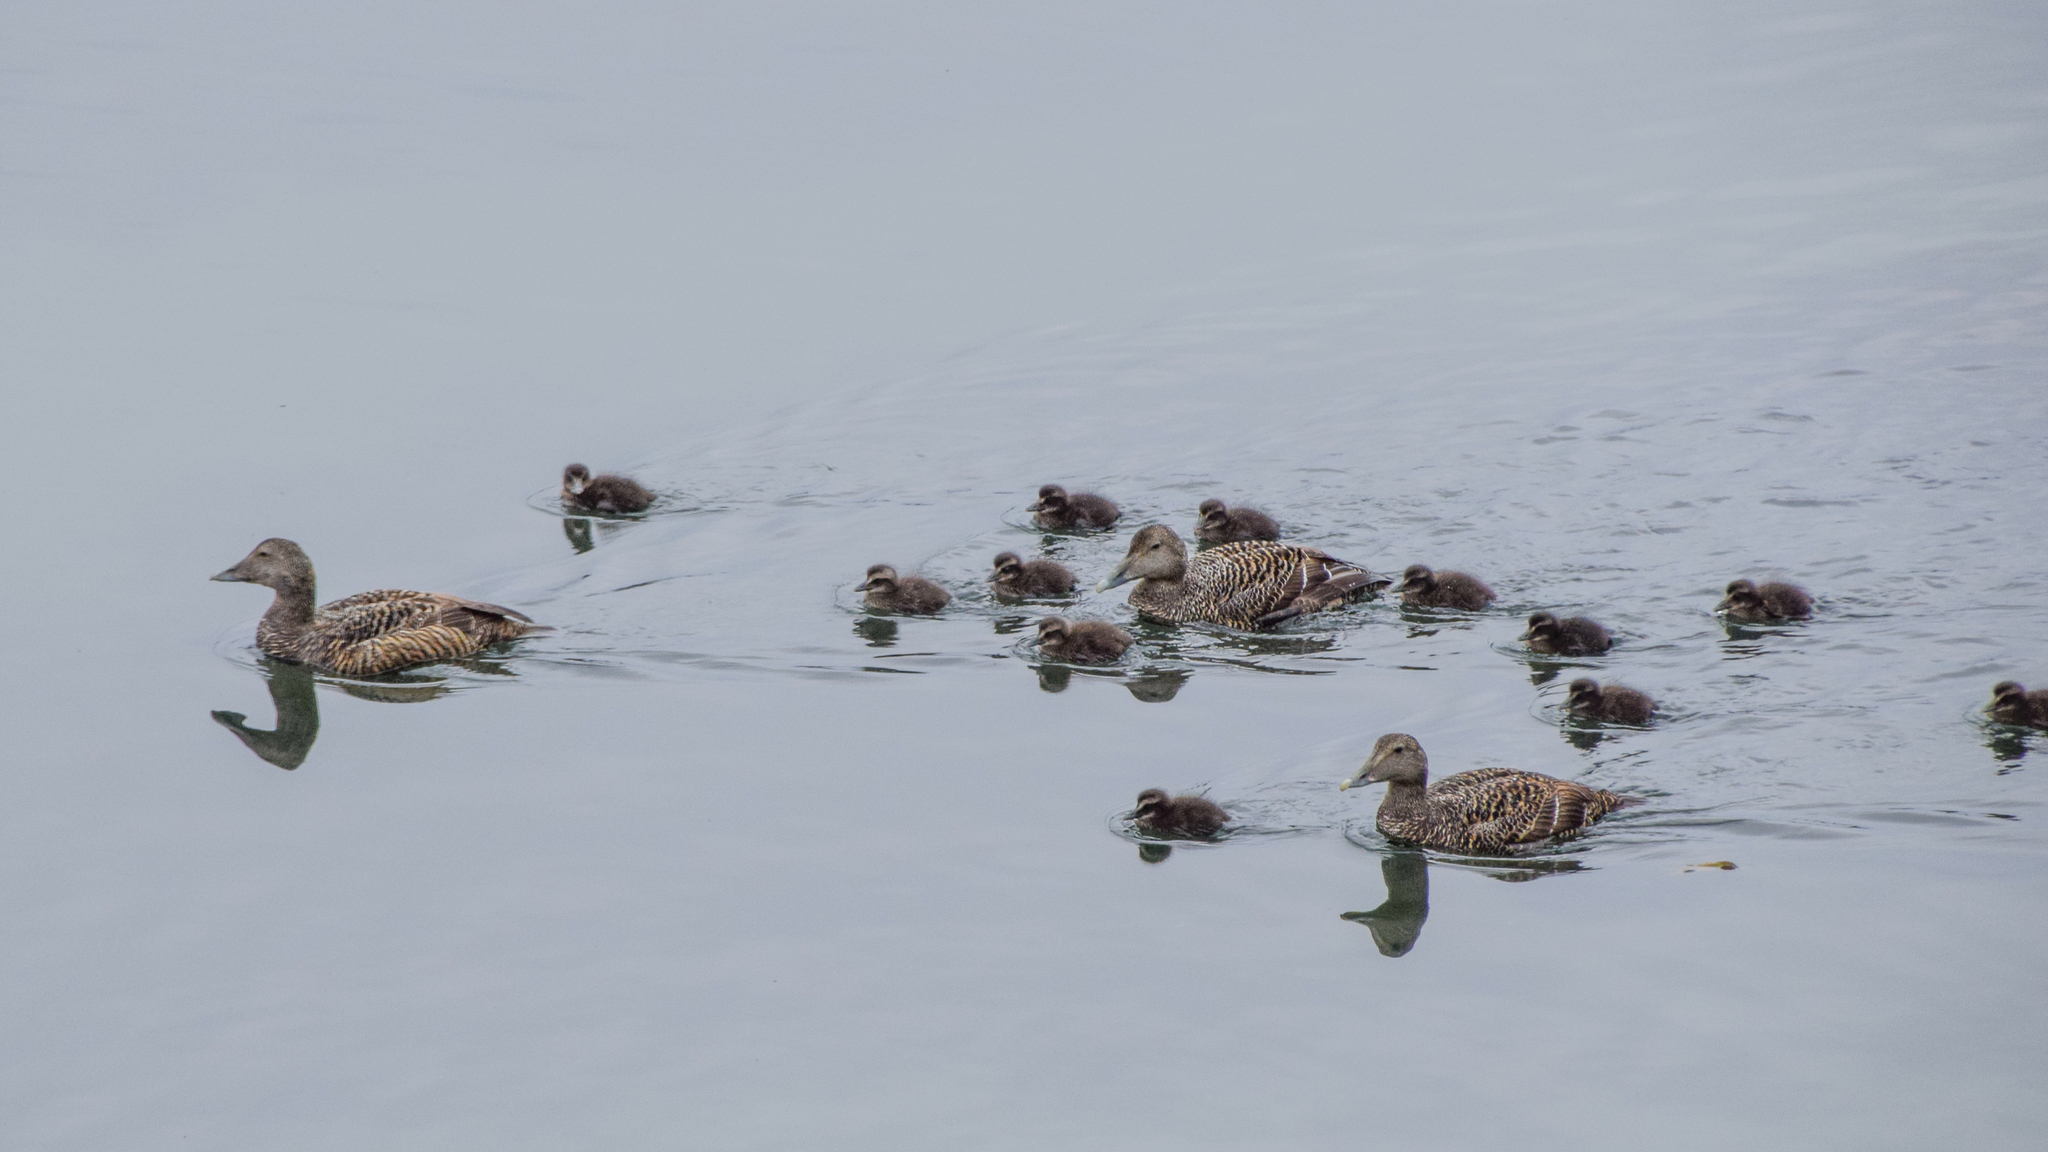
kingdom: Animalia
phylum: Chordata
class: Aves
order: Anseriformes
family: Anatidae
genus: Somateria
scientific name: Somateria mollissima
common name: Common eider
